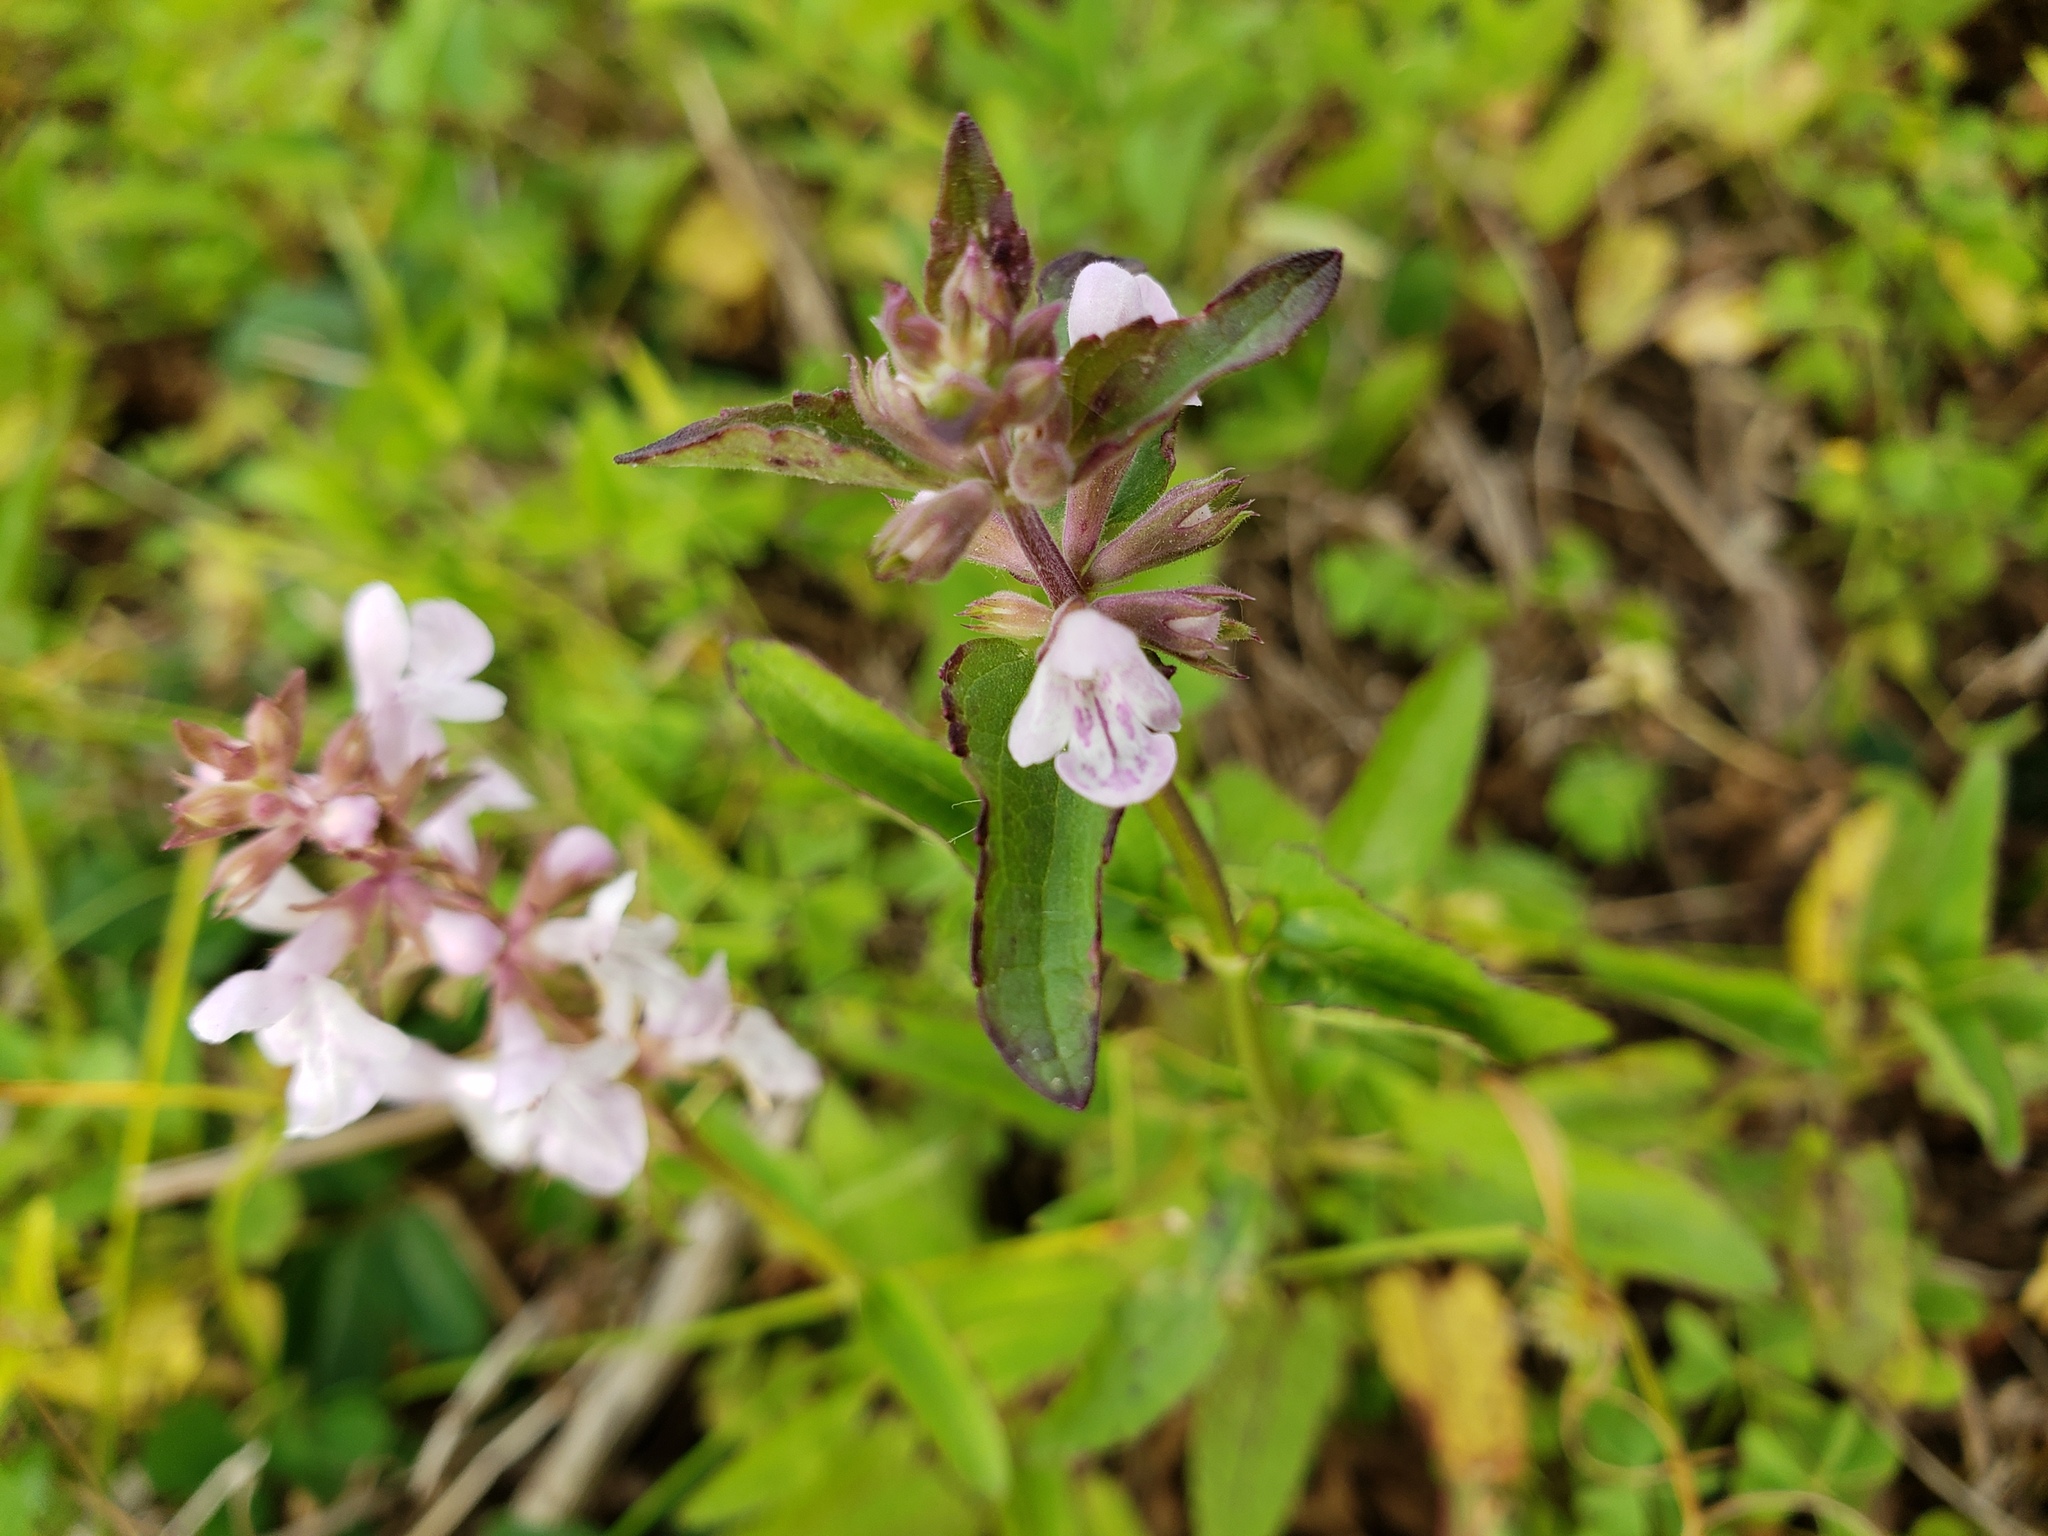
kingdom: Plantae
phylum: Tracheophyta
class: Magnoliopsida
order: Lamiales
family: Lamiaceae
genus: Stachys
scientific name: Stachys floridana
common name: Florida betony
